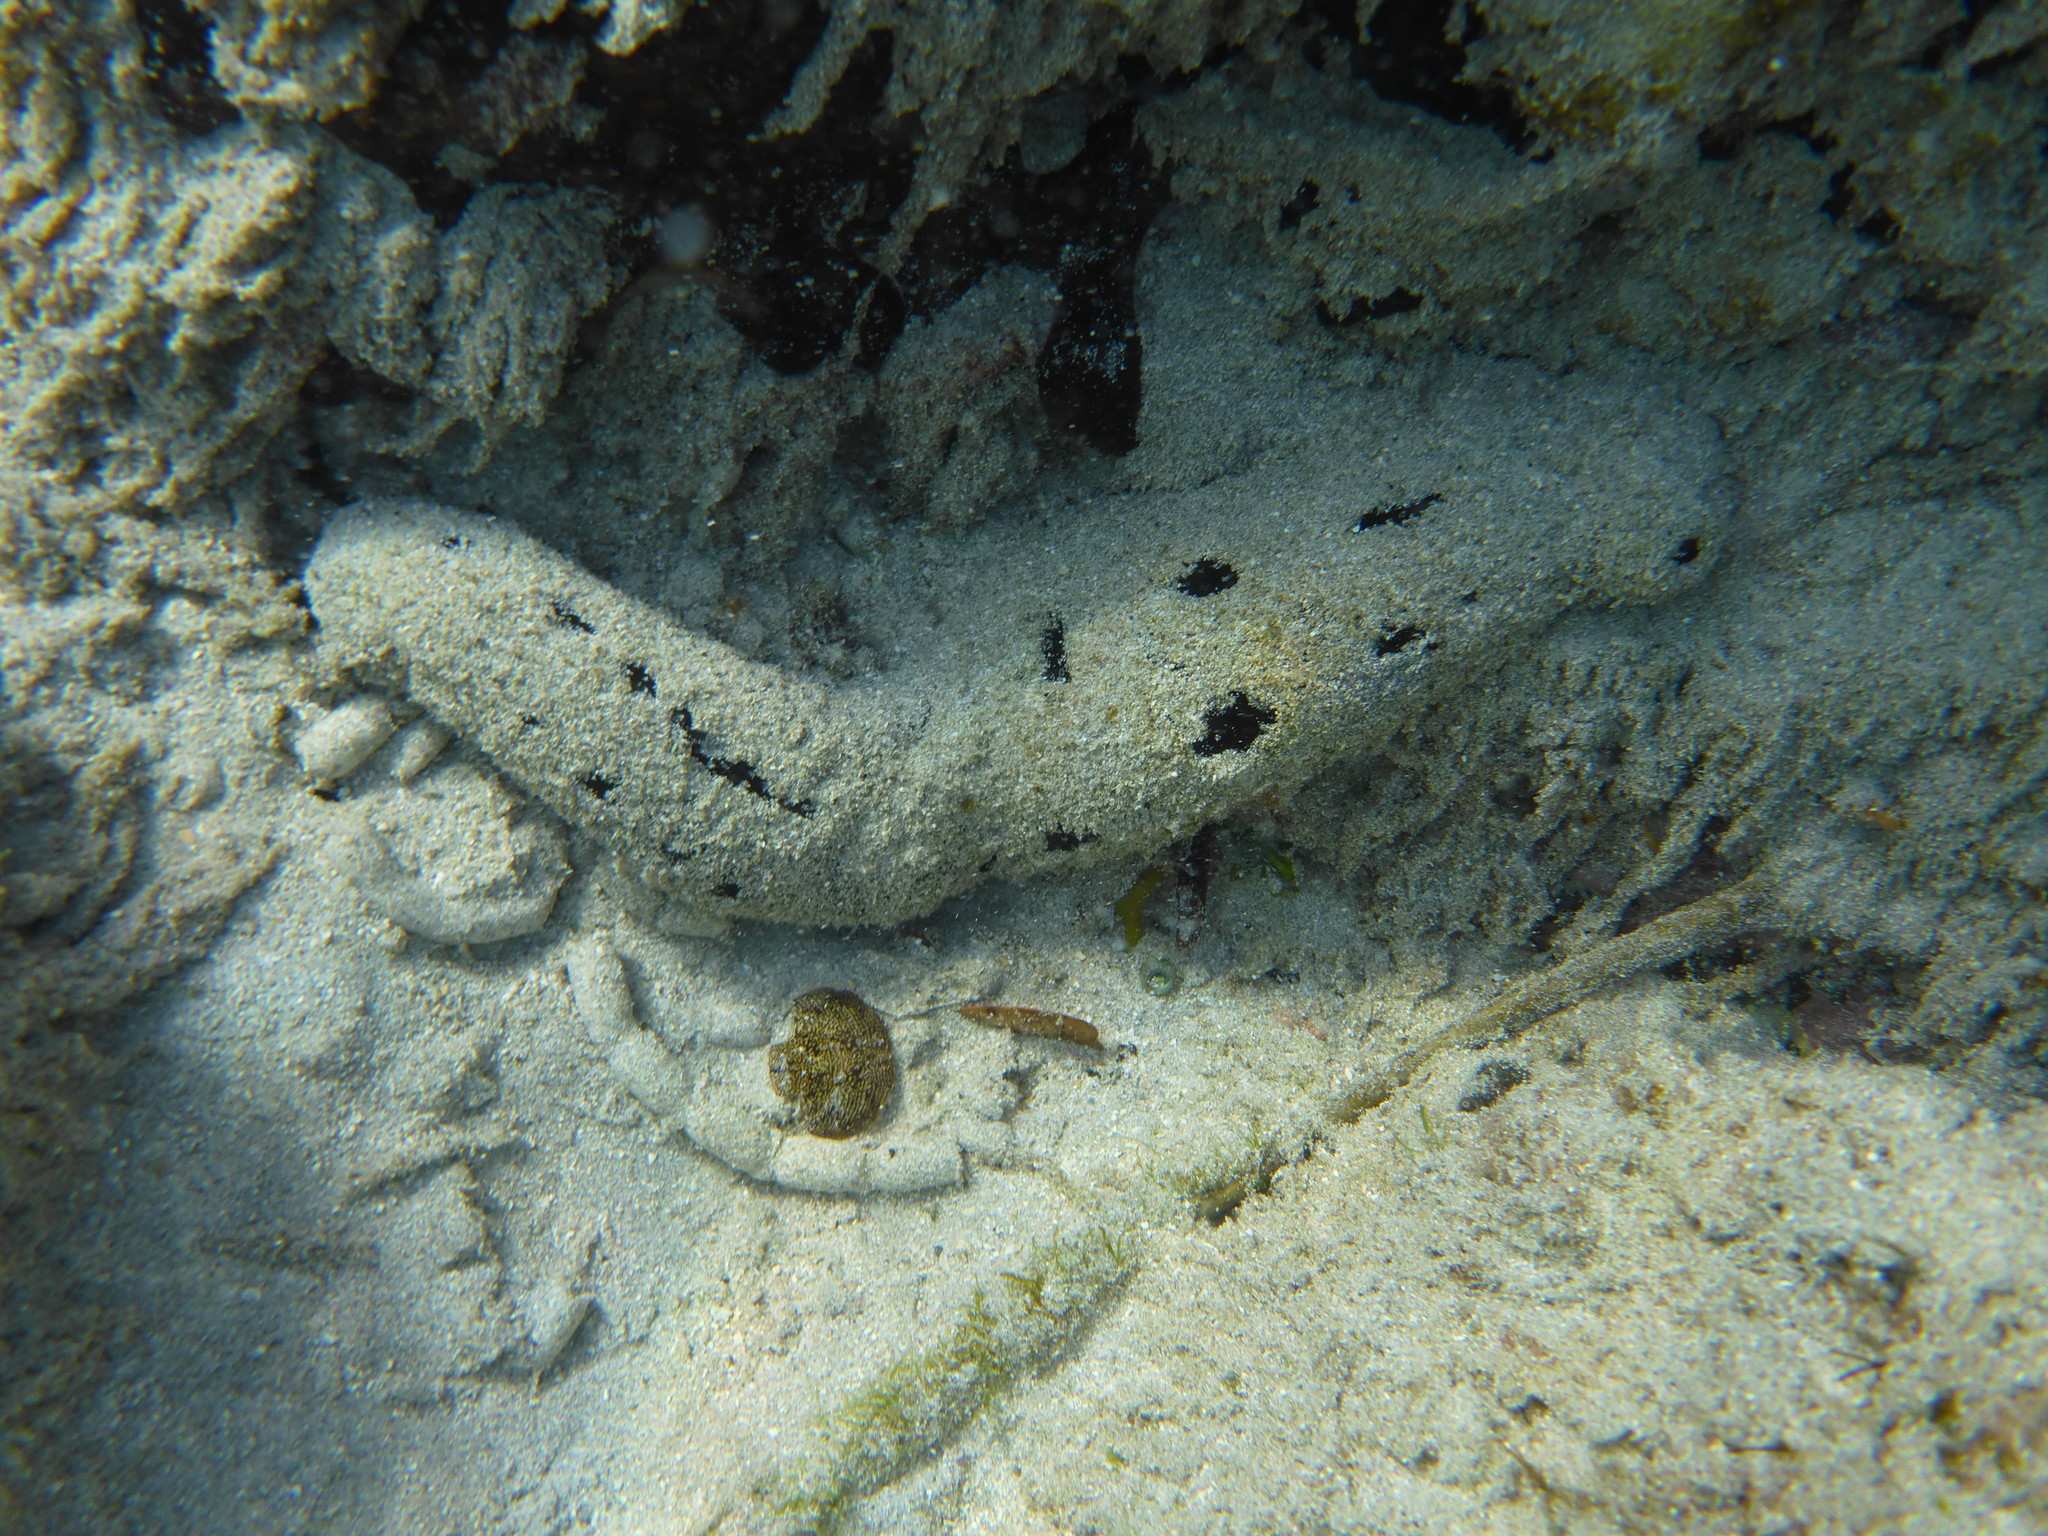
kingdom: Animalia
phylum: Echinodermata
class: Holothuroidea
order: Holothuriida
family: Holothuriidae
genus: Holothuria
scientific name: Holothuria atra
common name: Lollyfish
